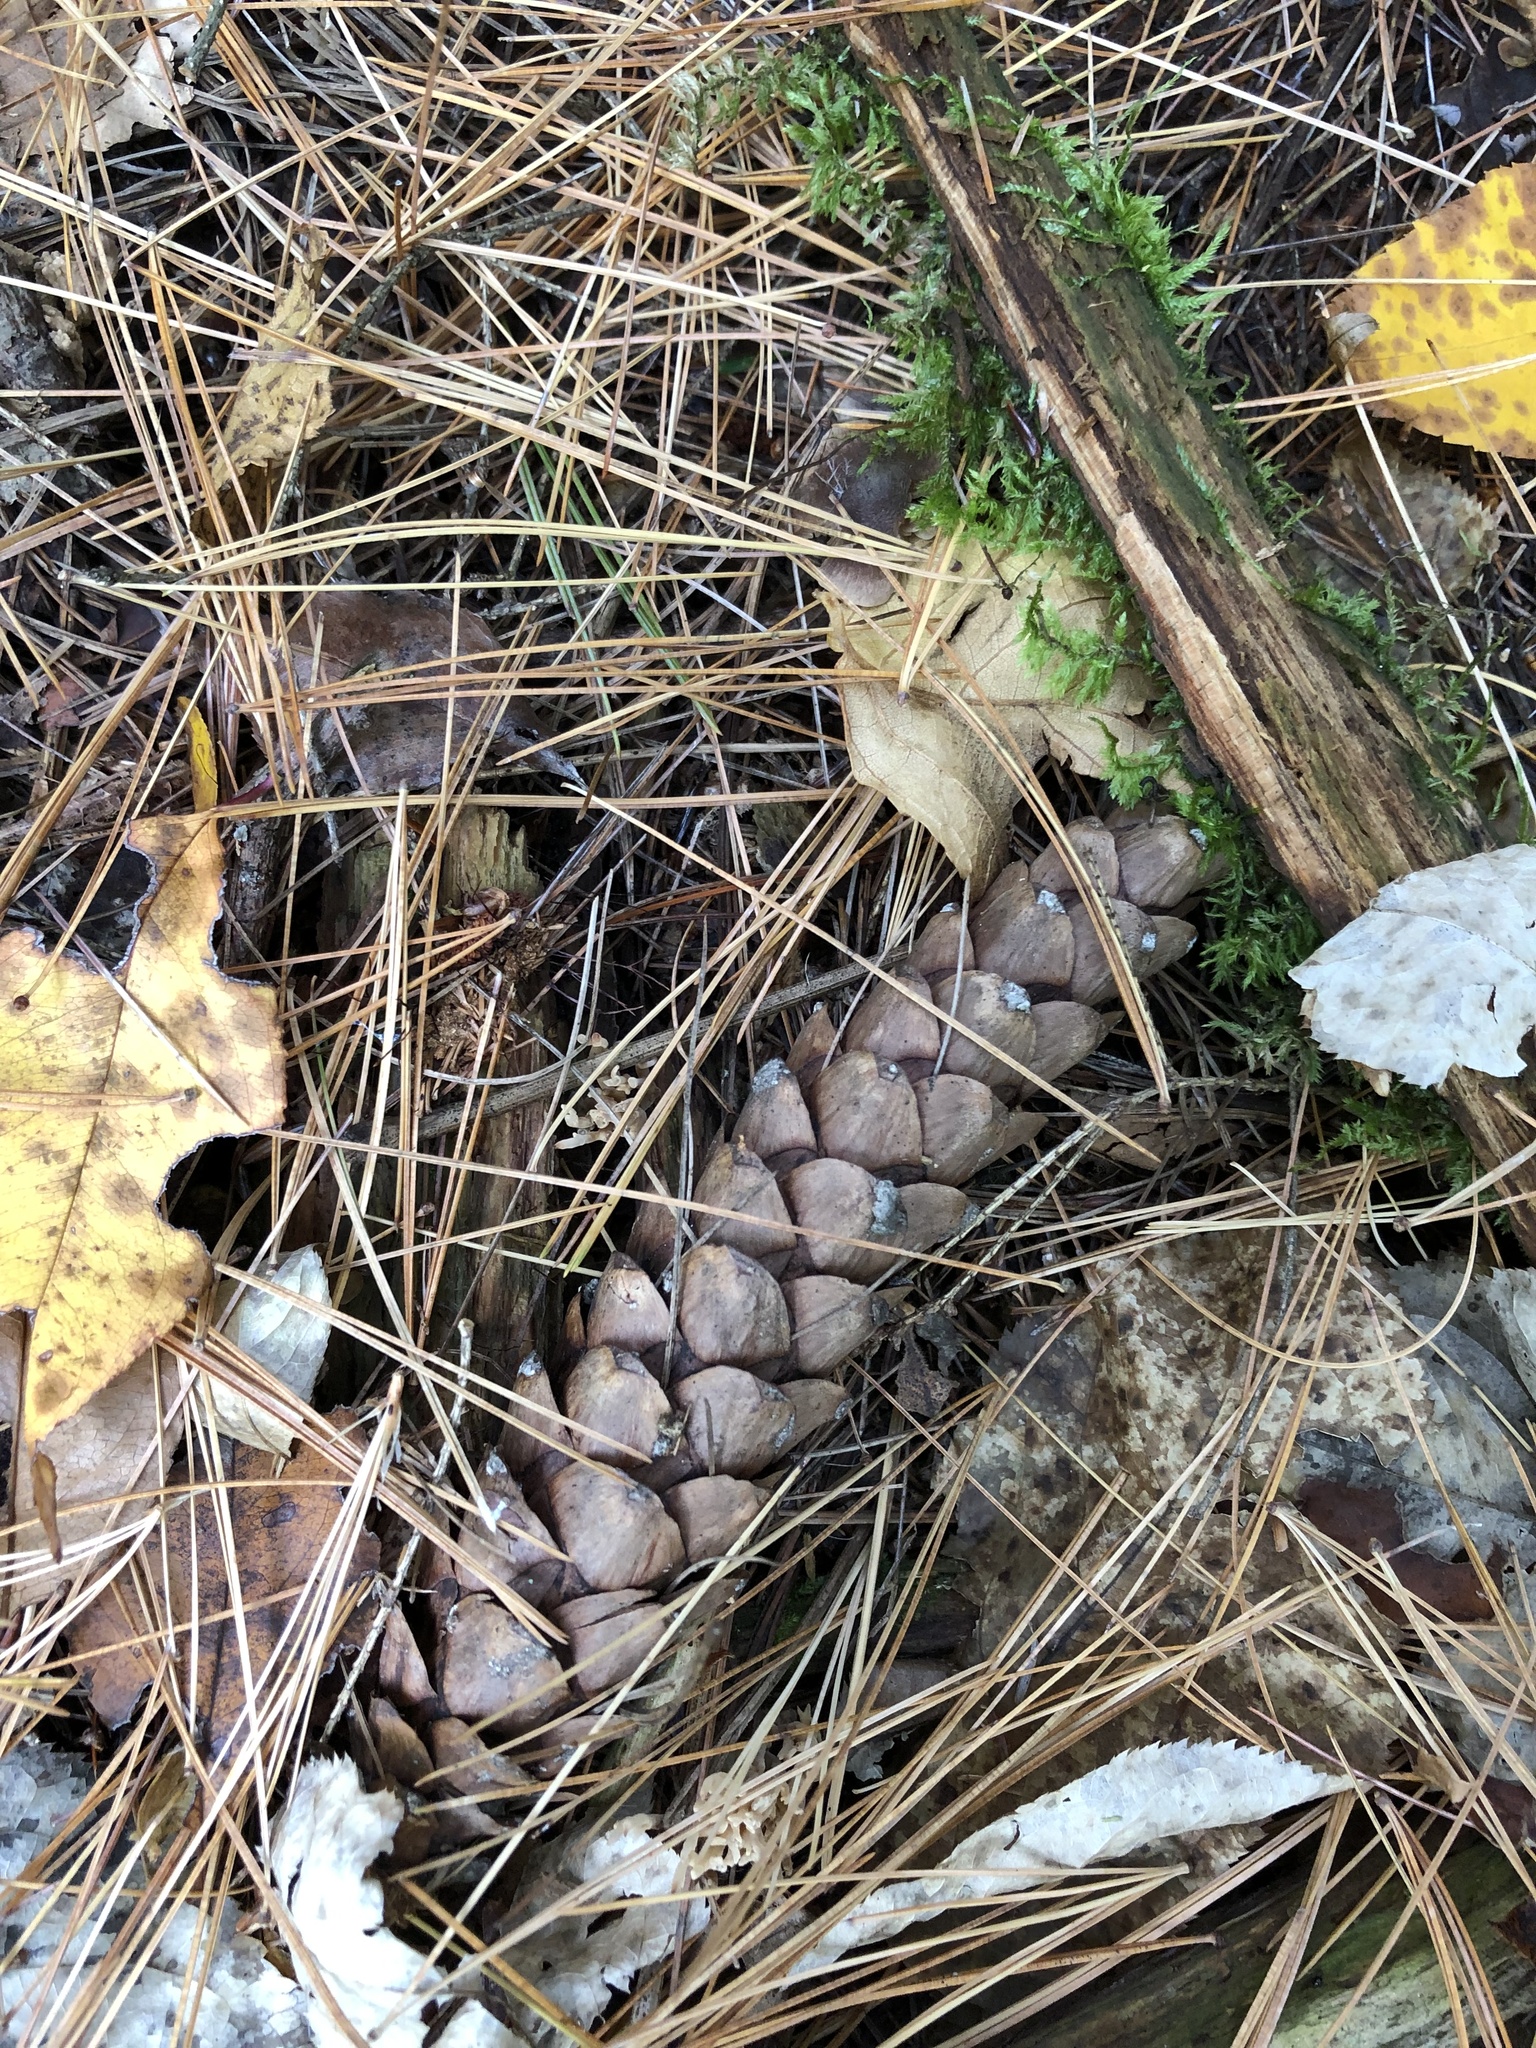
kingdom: Plantae
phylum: Tracheophyta
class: Pinopsida
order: Pinales
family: Pinaceae
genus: Pinus
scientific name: Pinus strobus
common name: Weymouth pine
